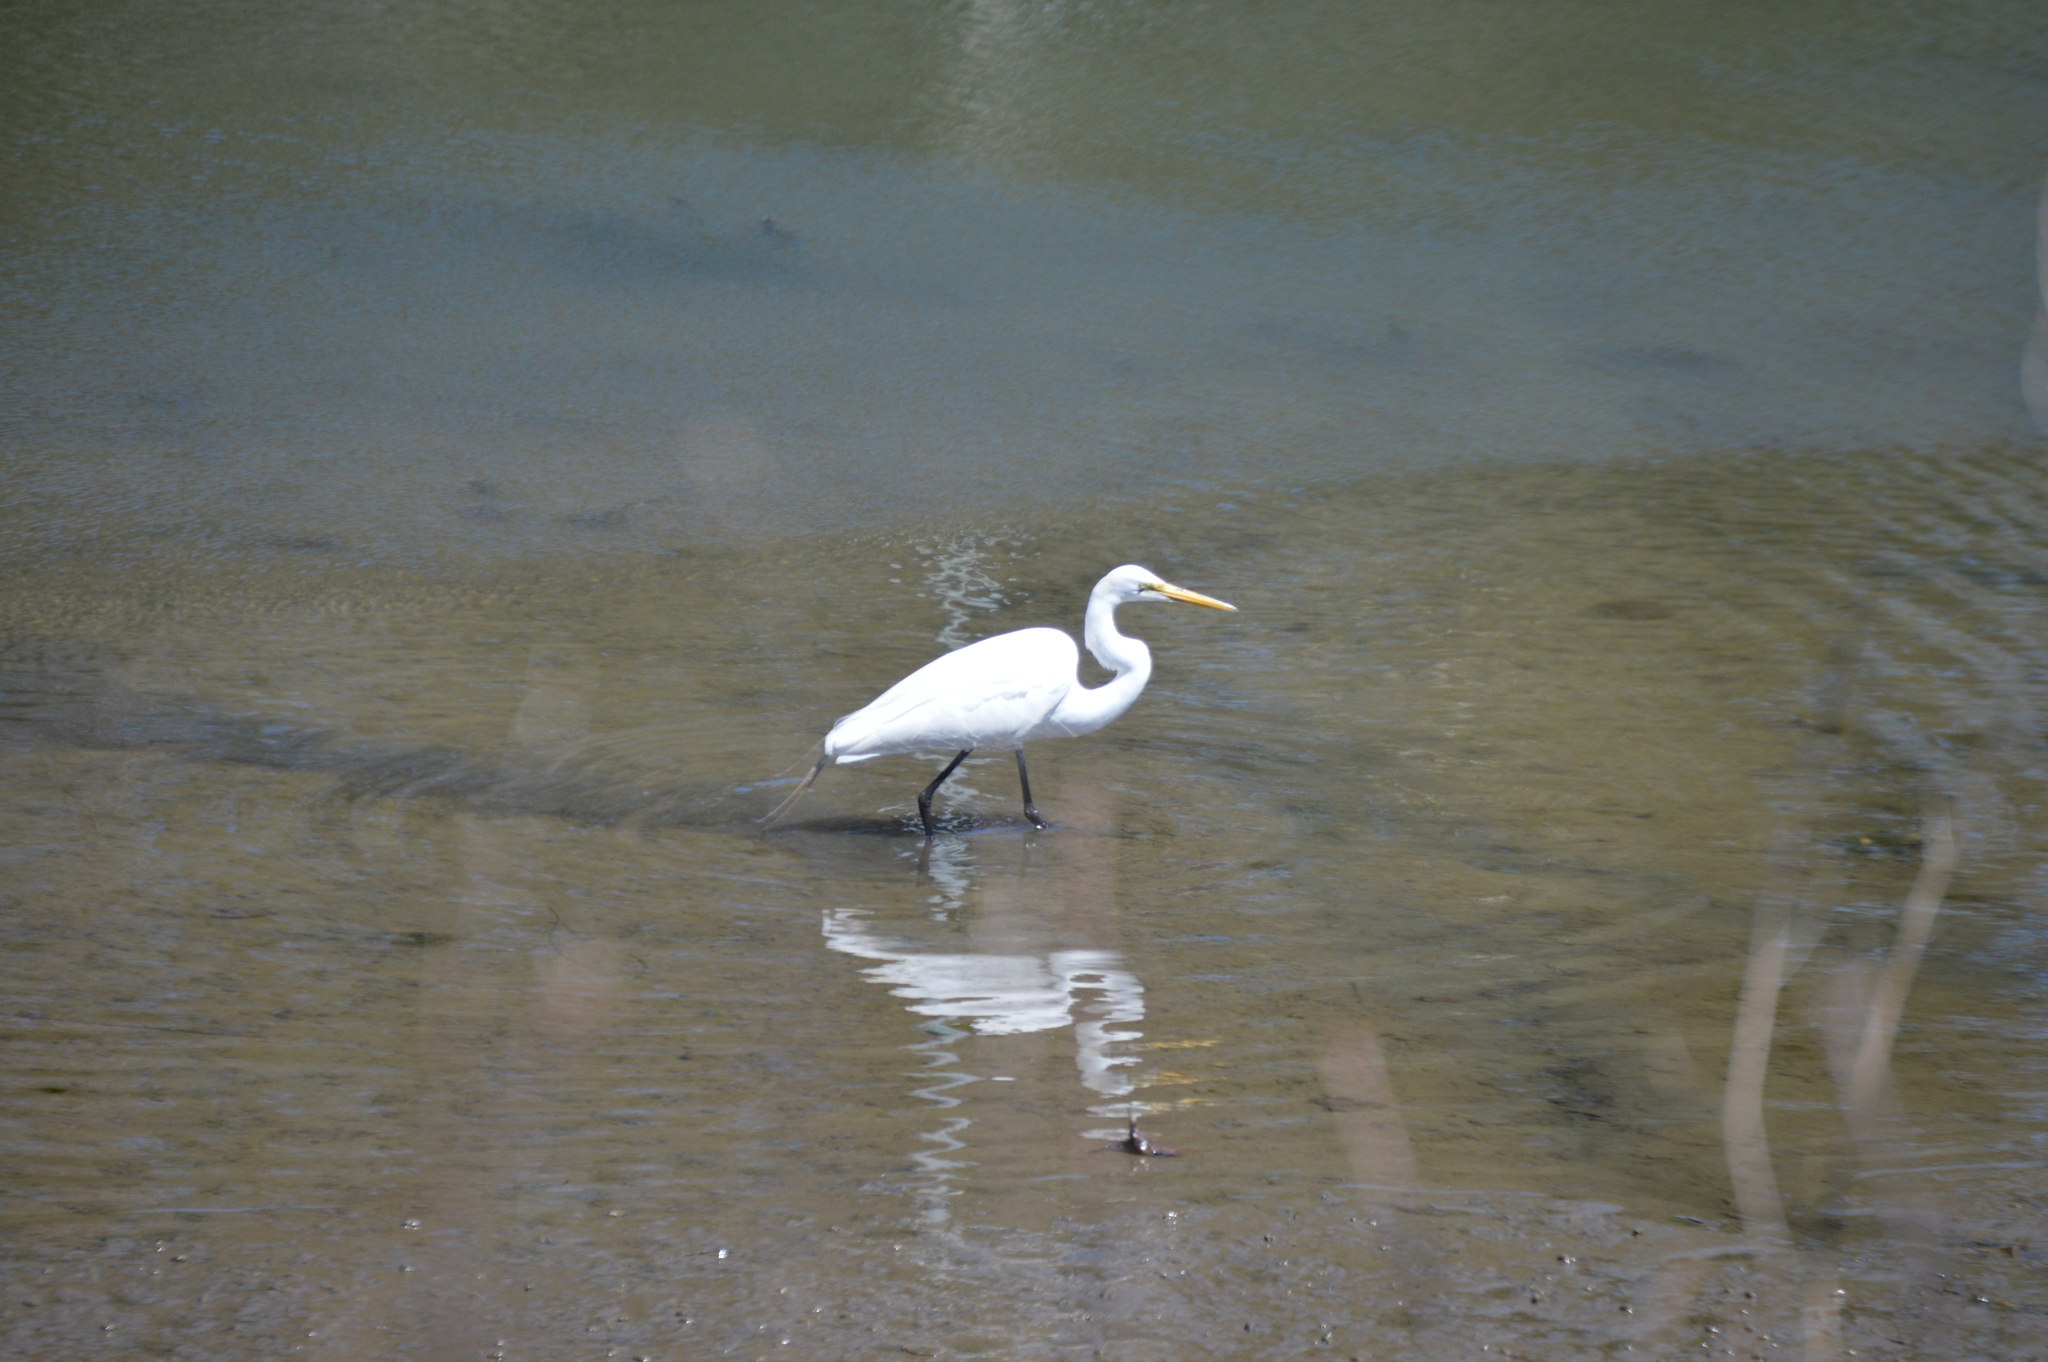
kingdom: Animalia
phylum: Chordata
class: Aves
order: Pelecaniformes
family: Ardeidae
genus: Ardea
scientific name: Ardea alba
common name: Great egret
